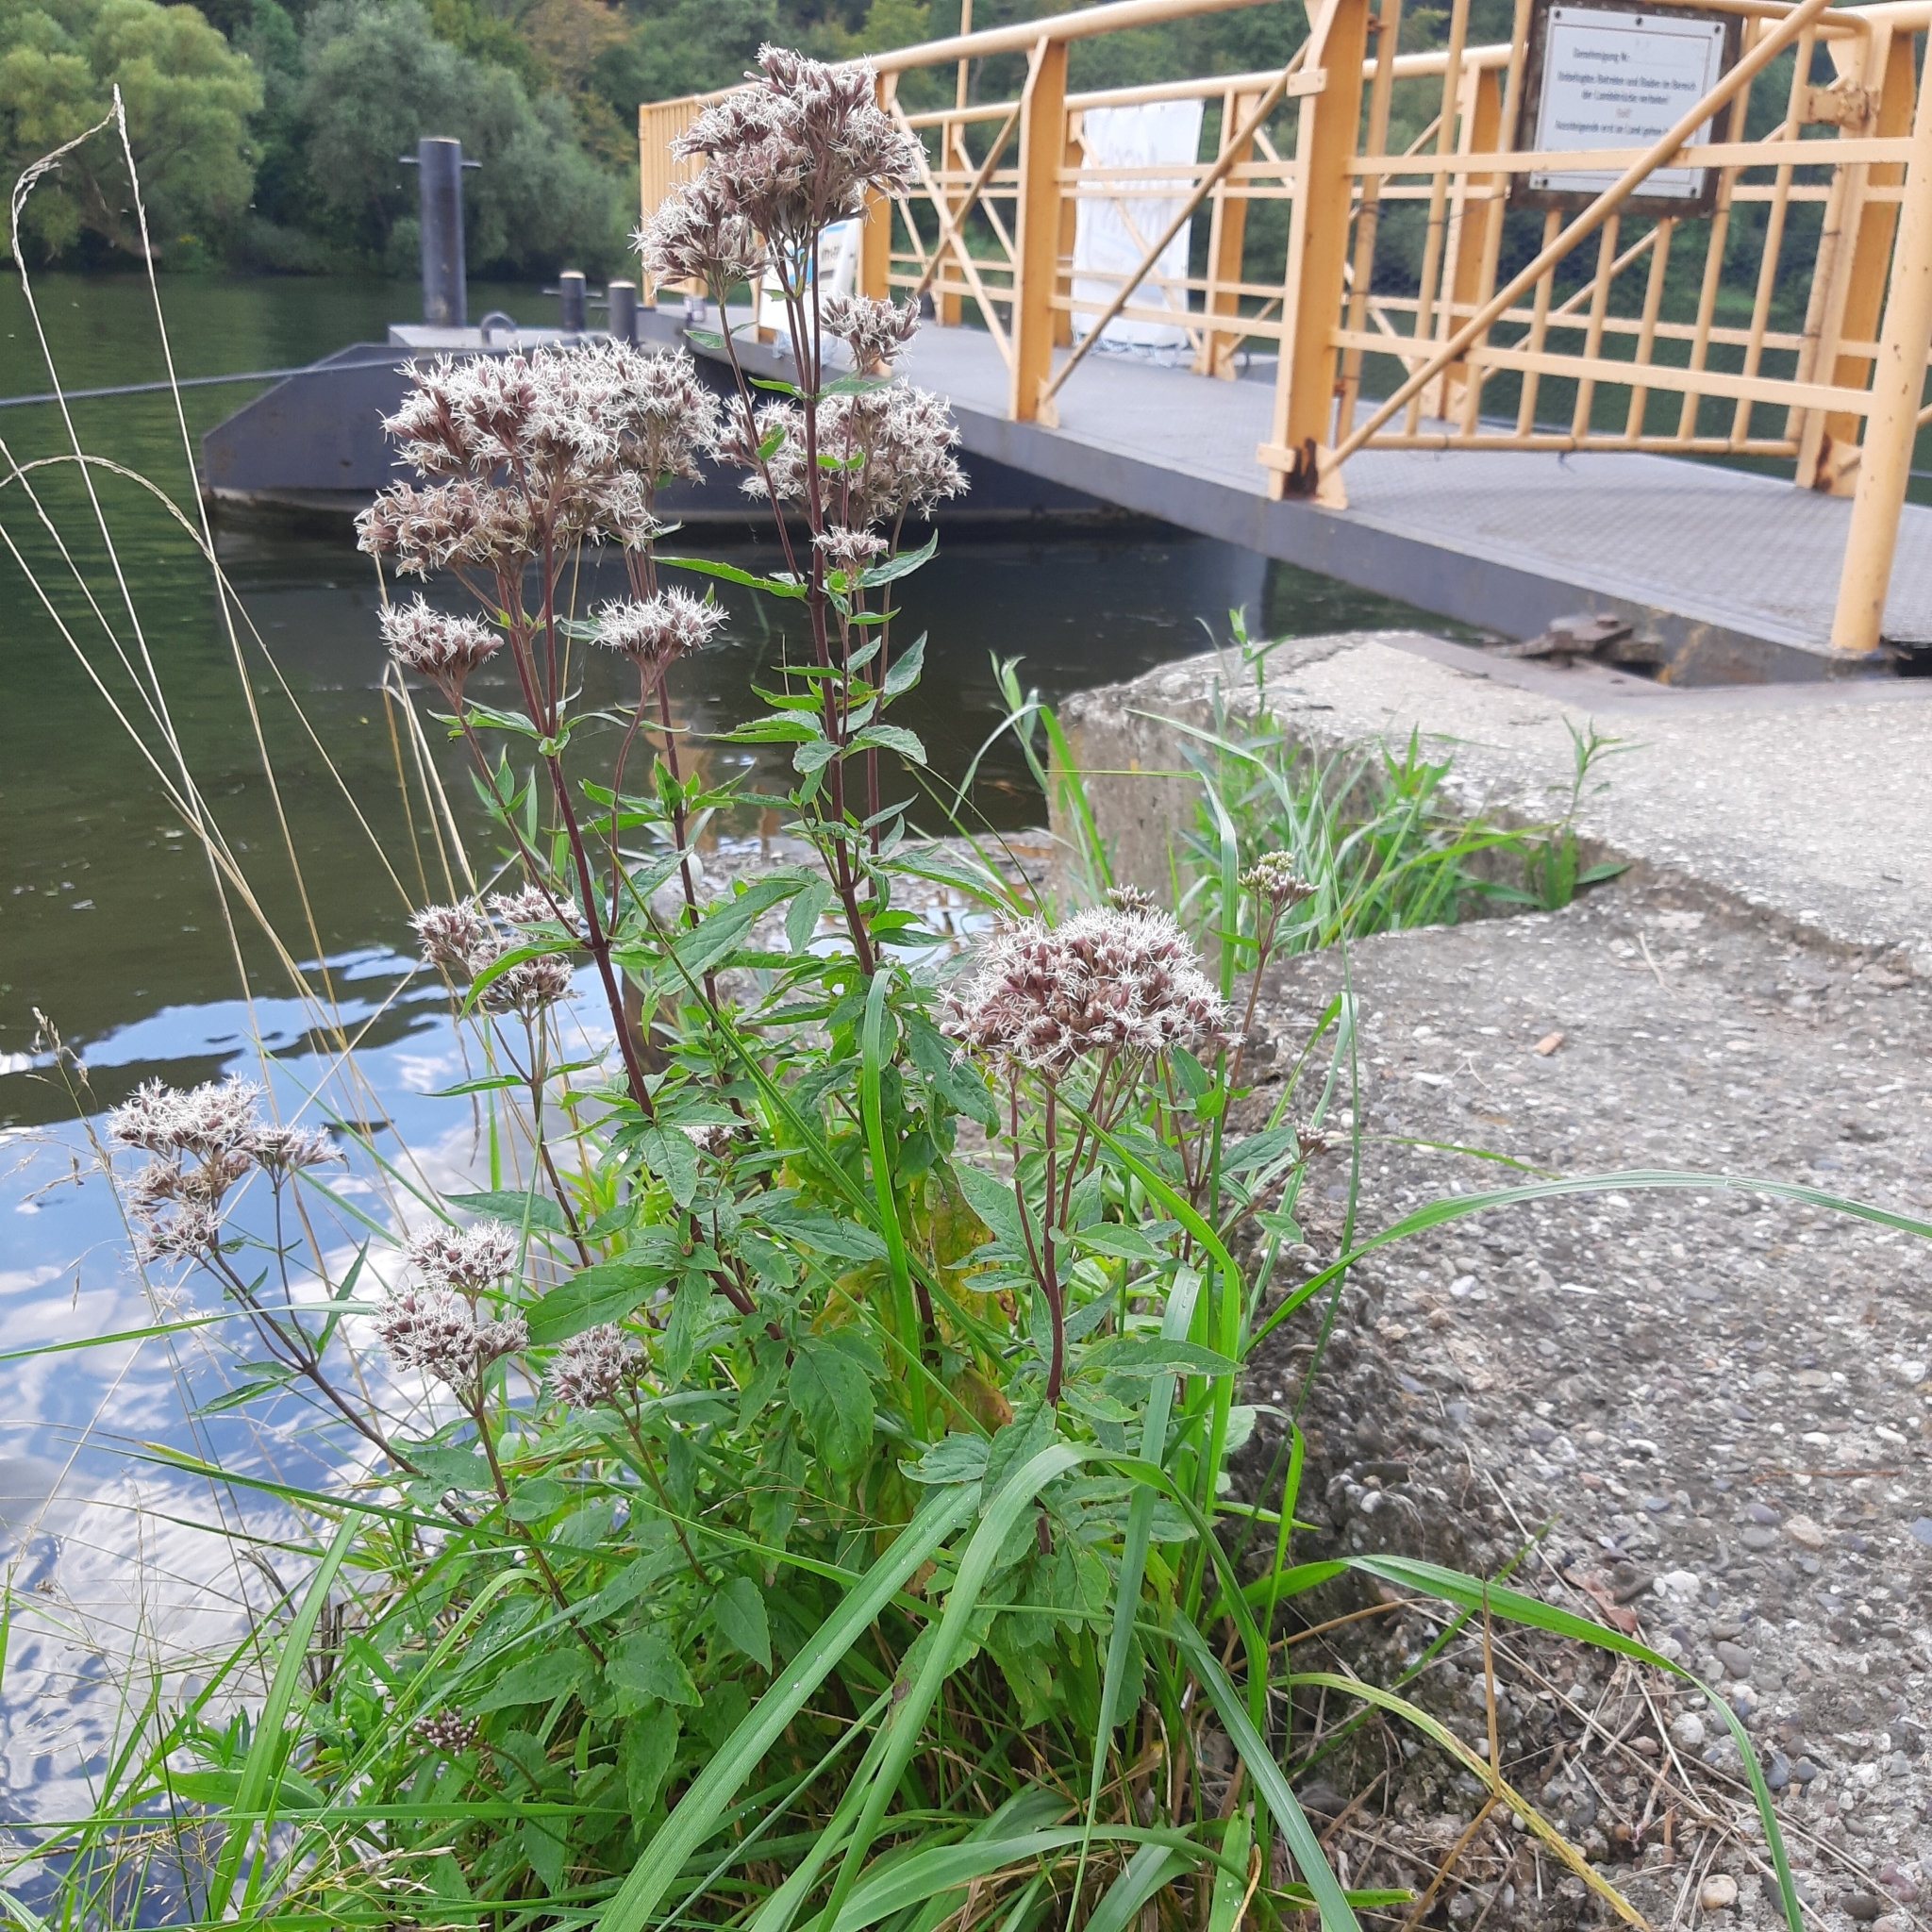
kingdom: Plantae
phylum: Tracheophyta
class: Magnoliopsida
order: Asterales
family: Asteraceae
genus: Eupatorium
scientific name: Eupatorium cannabinum
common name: Hemp-agrimony
